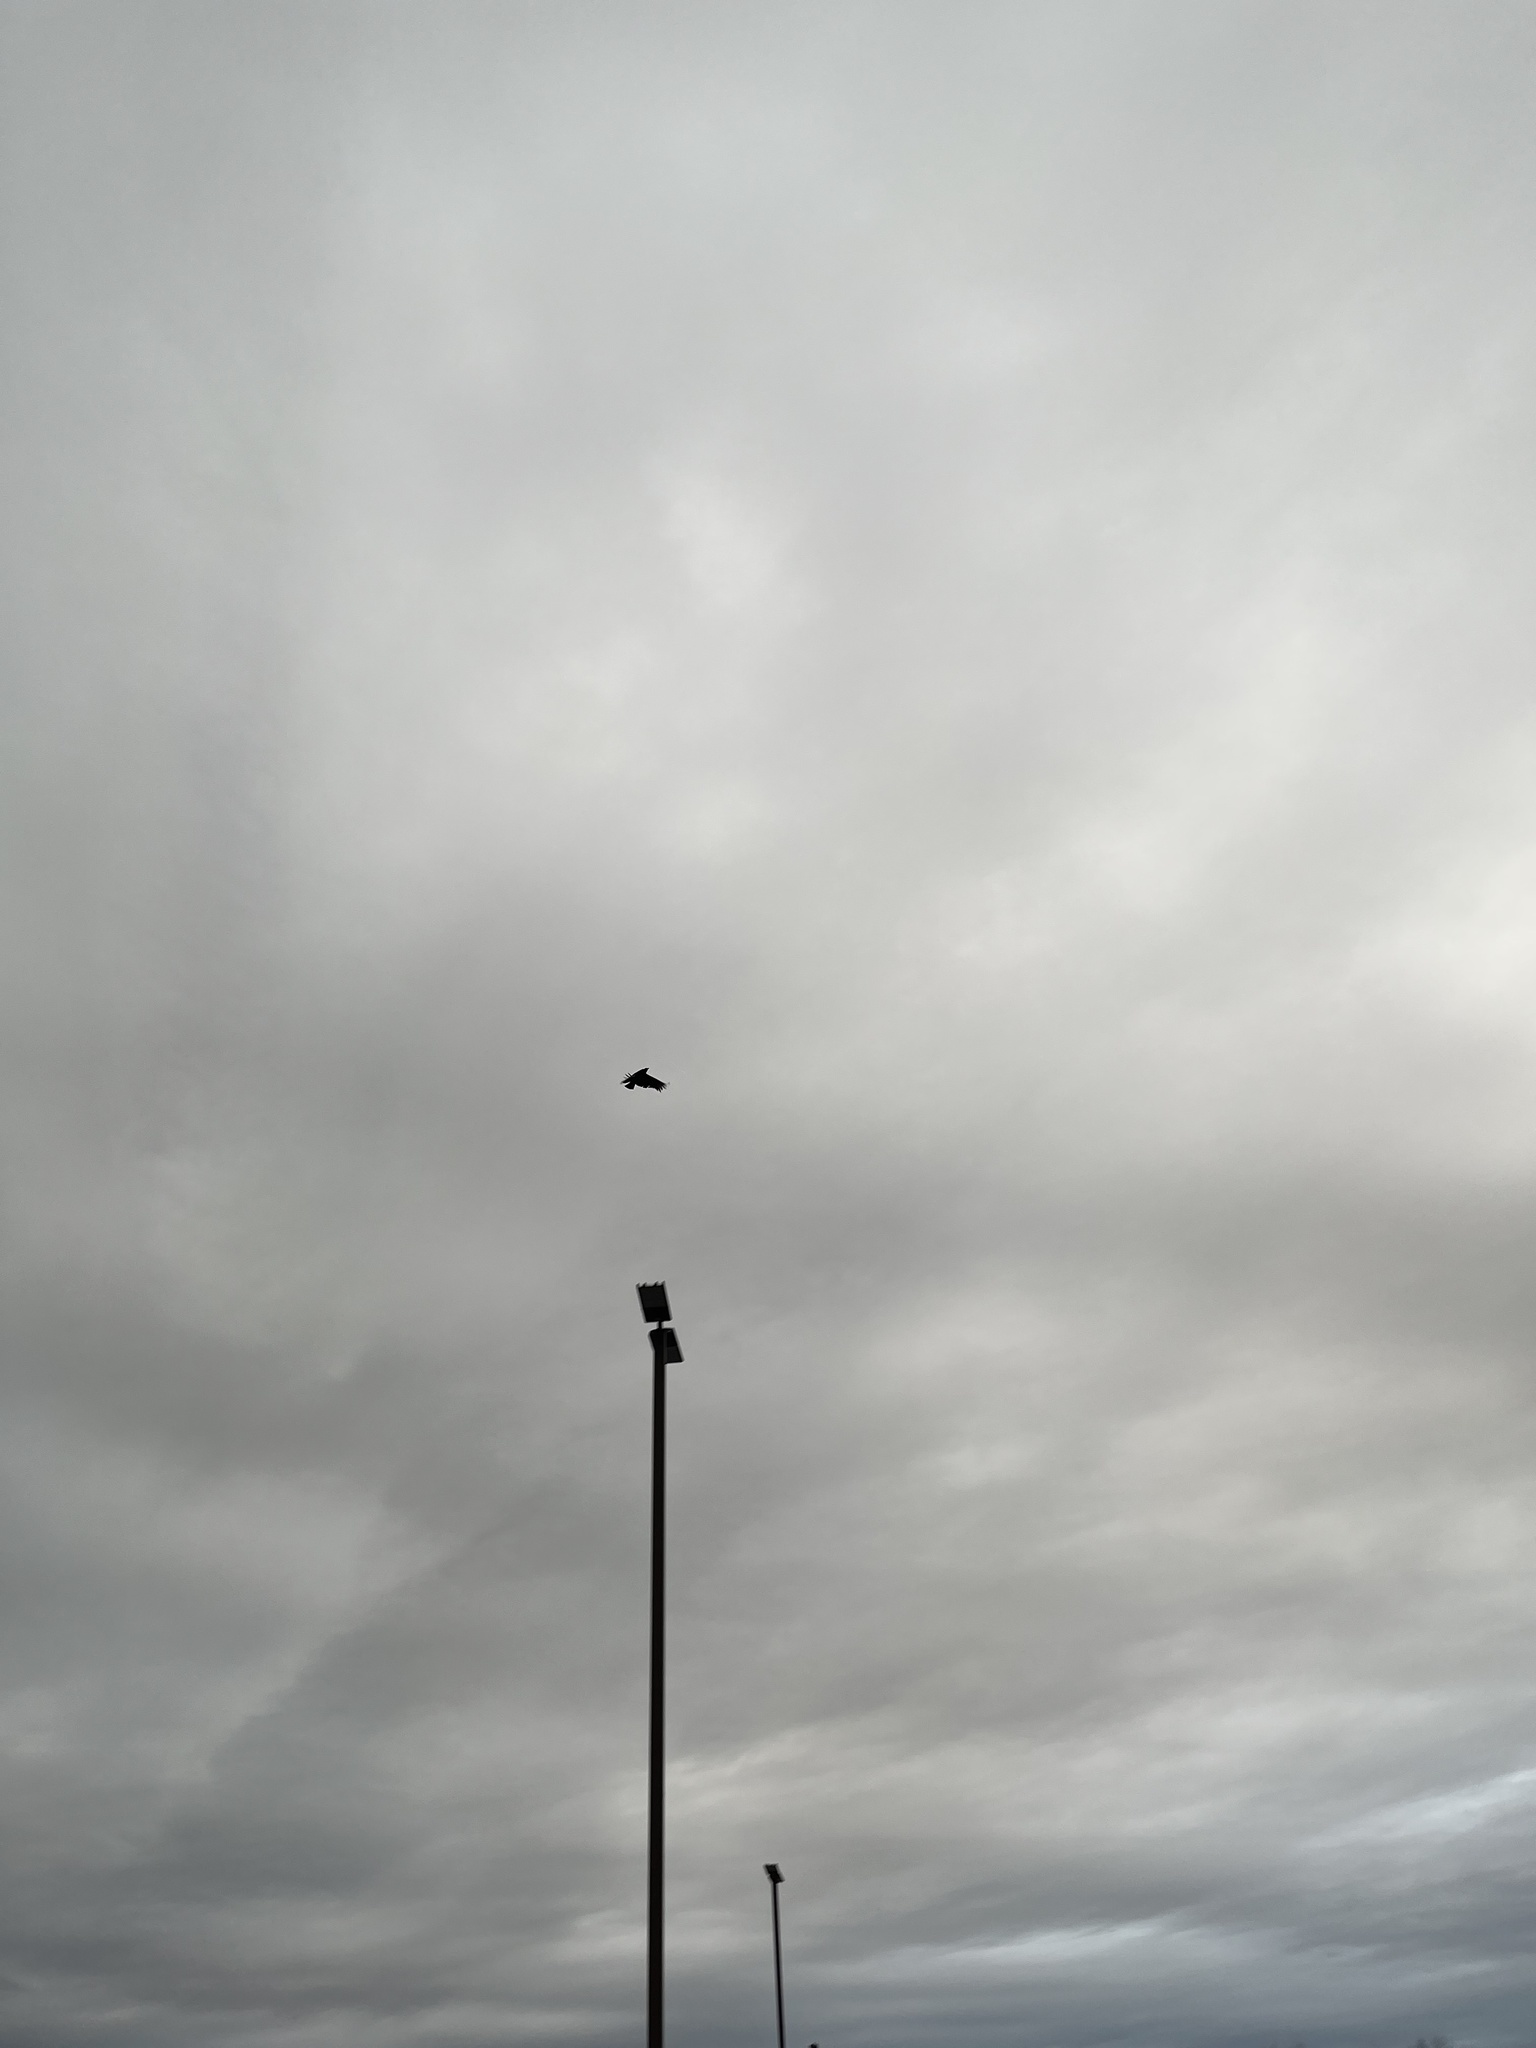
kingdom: Animalia
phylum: Chordata
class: Aves
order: Accipitriformes
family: Cathartidae
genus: Coragyps
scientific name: Coragyps atratus
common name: Black vulture
